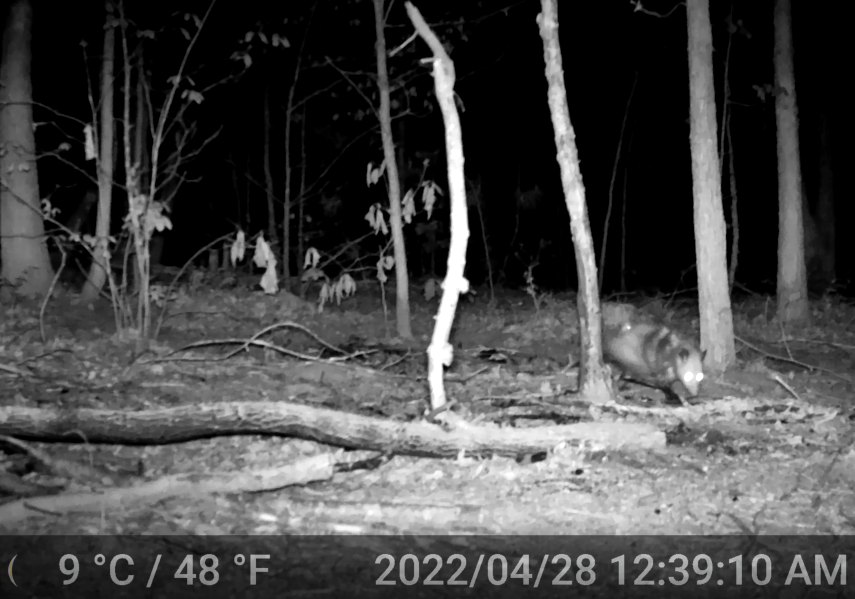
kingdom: Animalia
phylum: Chordata
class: Mammalia
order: Didelphimorphia
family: Didelphidae
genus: Didelphis
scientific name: Didelphis virginiana
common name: Virginia opossum
